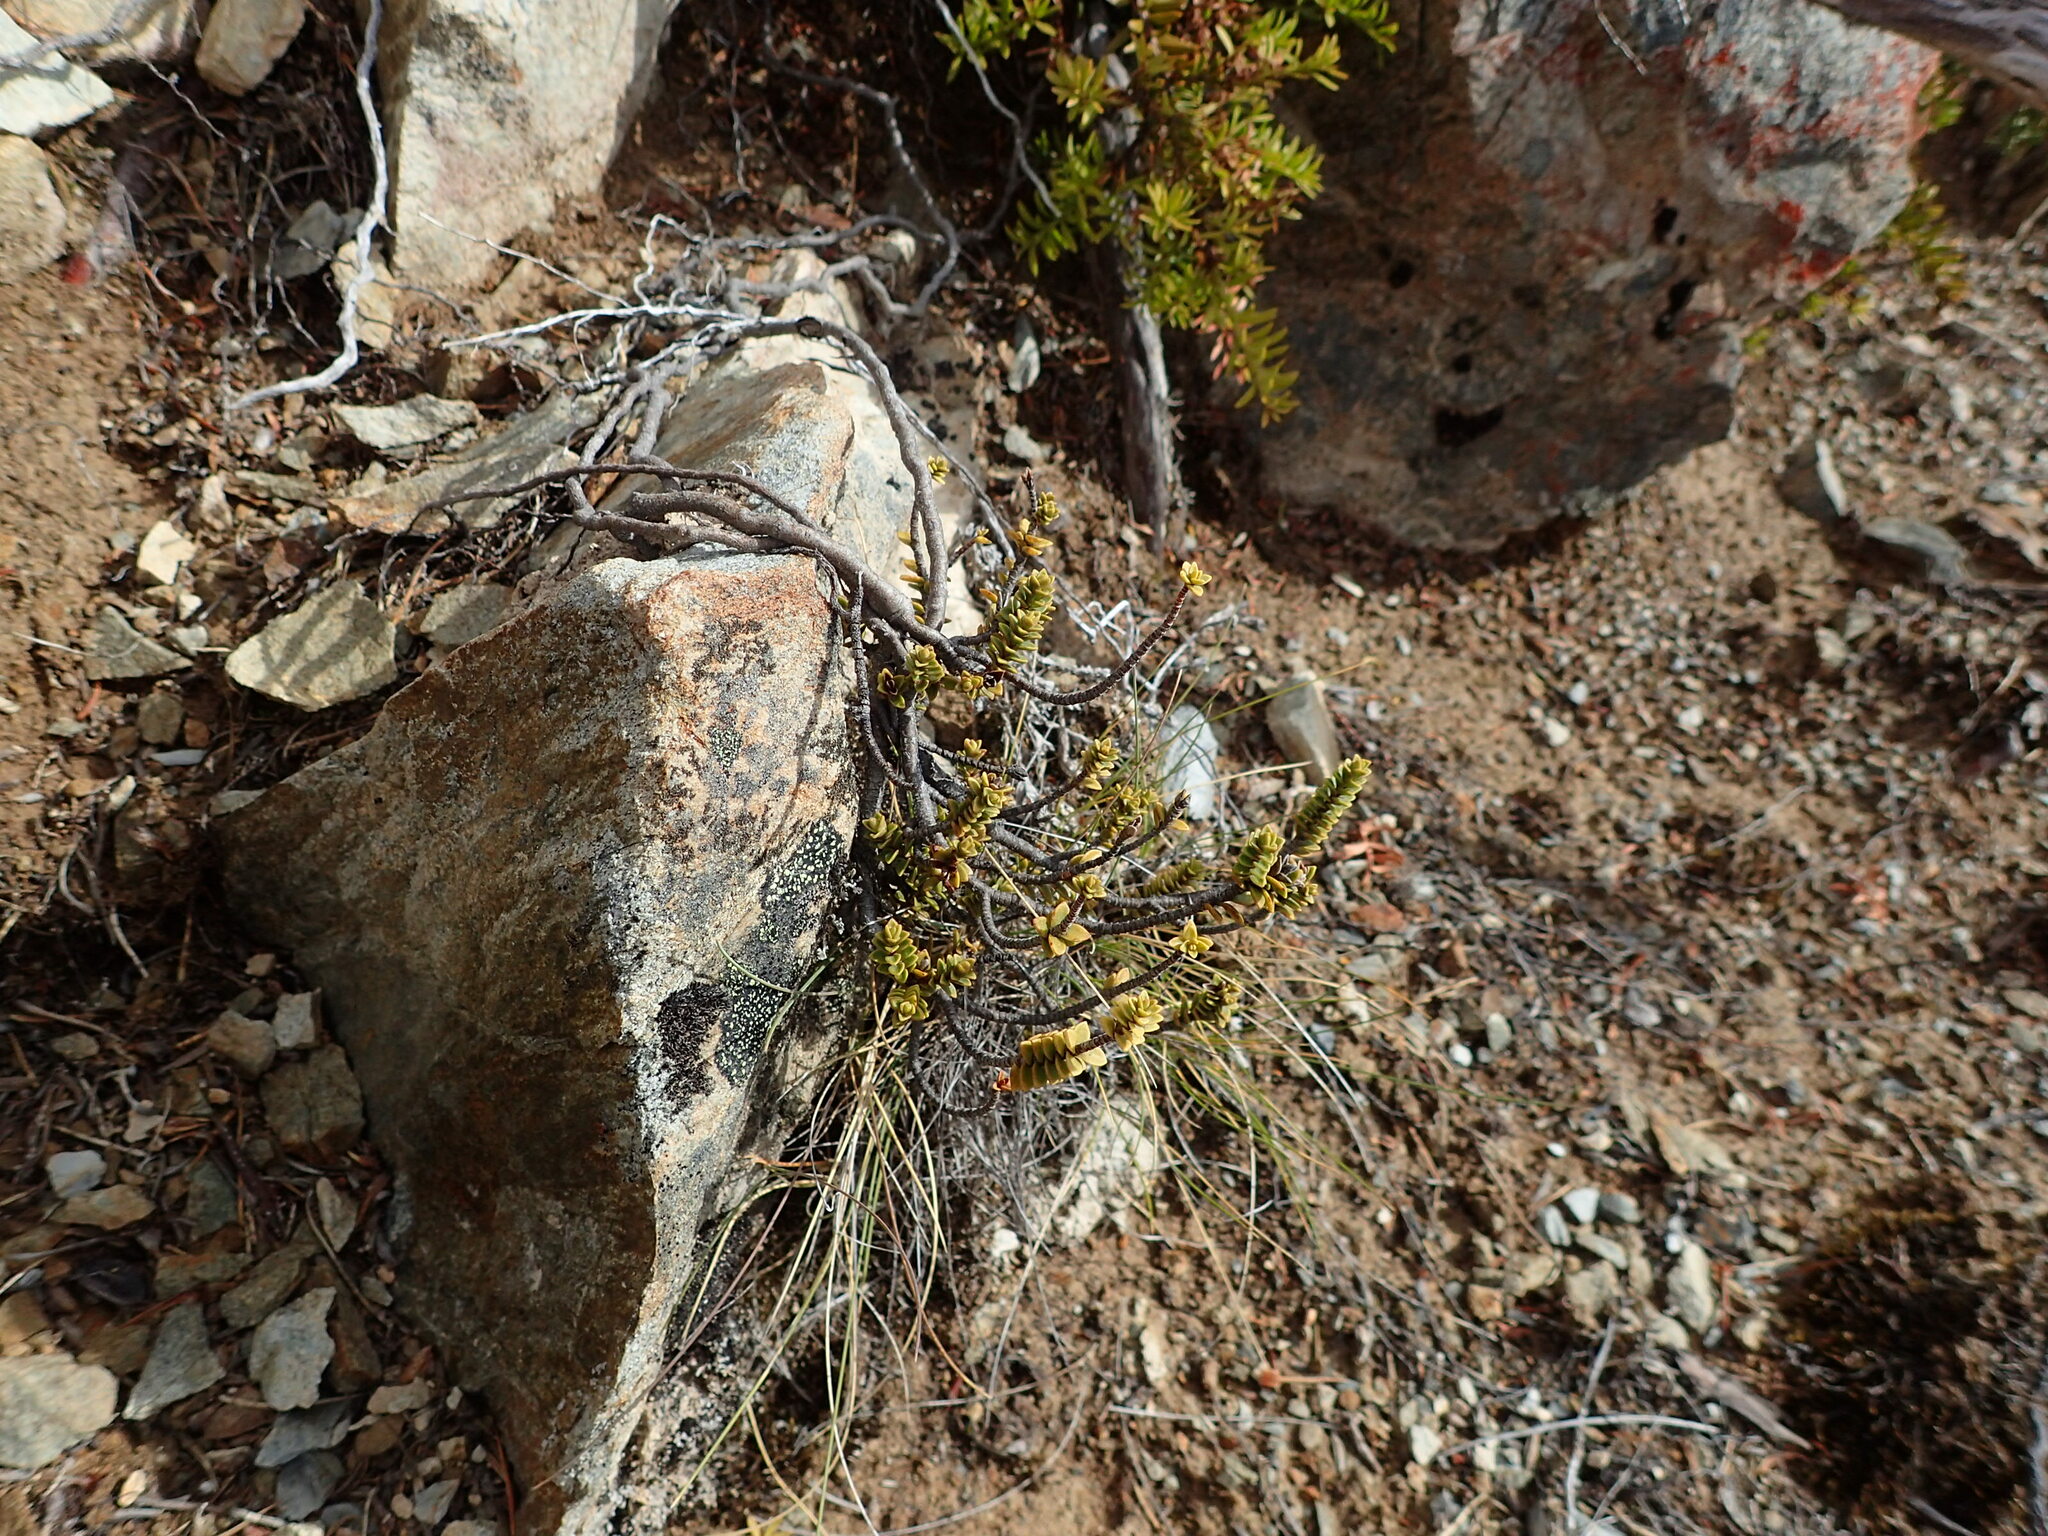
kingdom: Plantae
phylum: Tracheophyta
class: Magnoliopsida
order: Lamiales
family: Plantaginaceae
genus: Veronica
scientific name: Veronica buchananii
